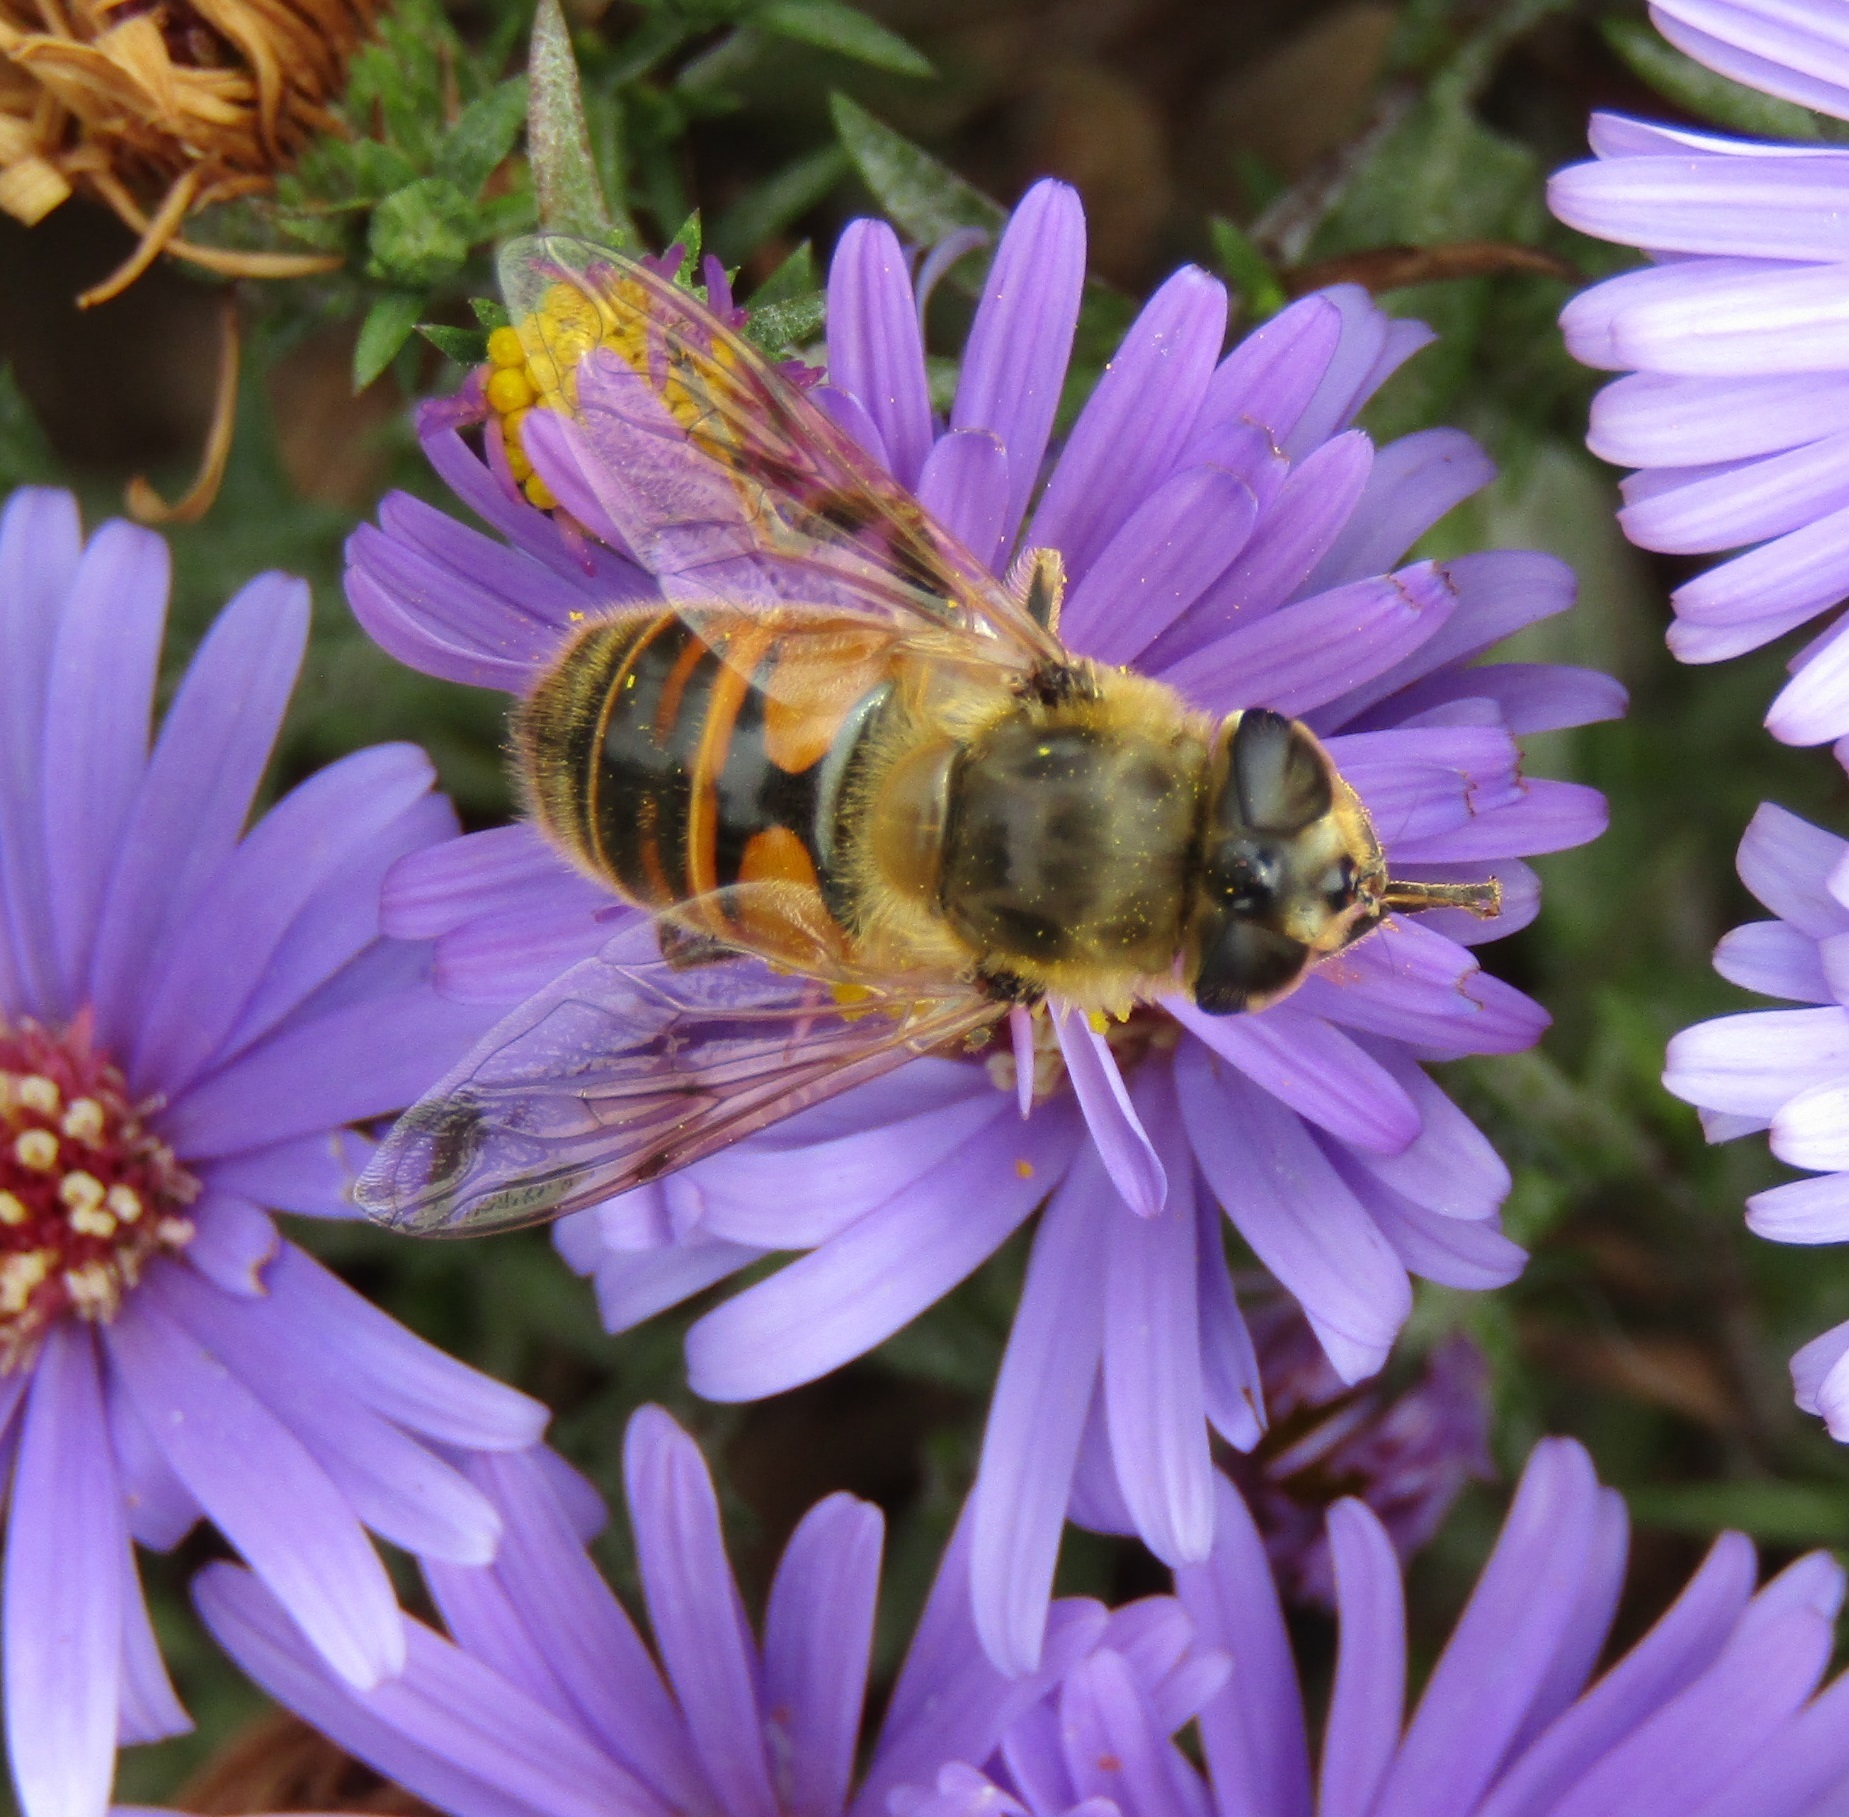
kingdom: Animalia
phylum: Arthropoda
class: Insecta
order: Diptera
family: Syrphidae
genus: Eristalis
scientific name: Eristalis tenax
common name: Drone fly
